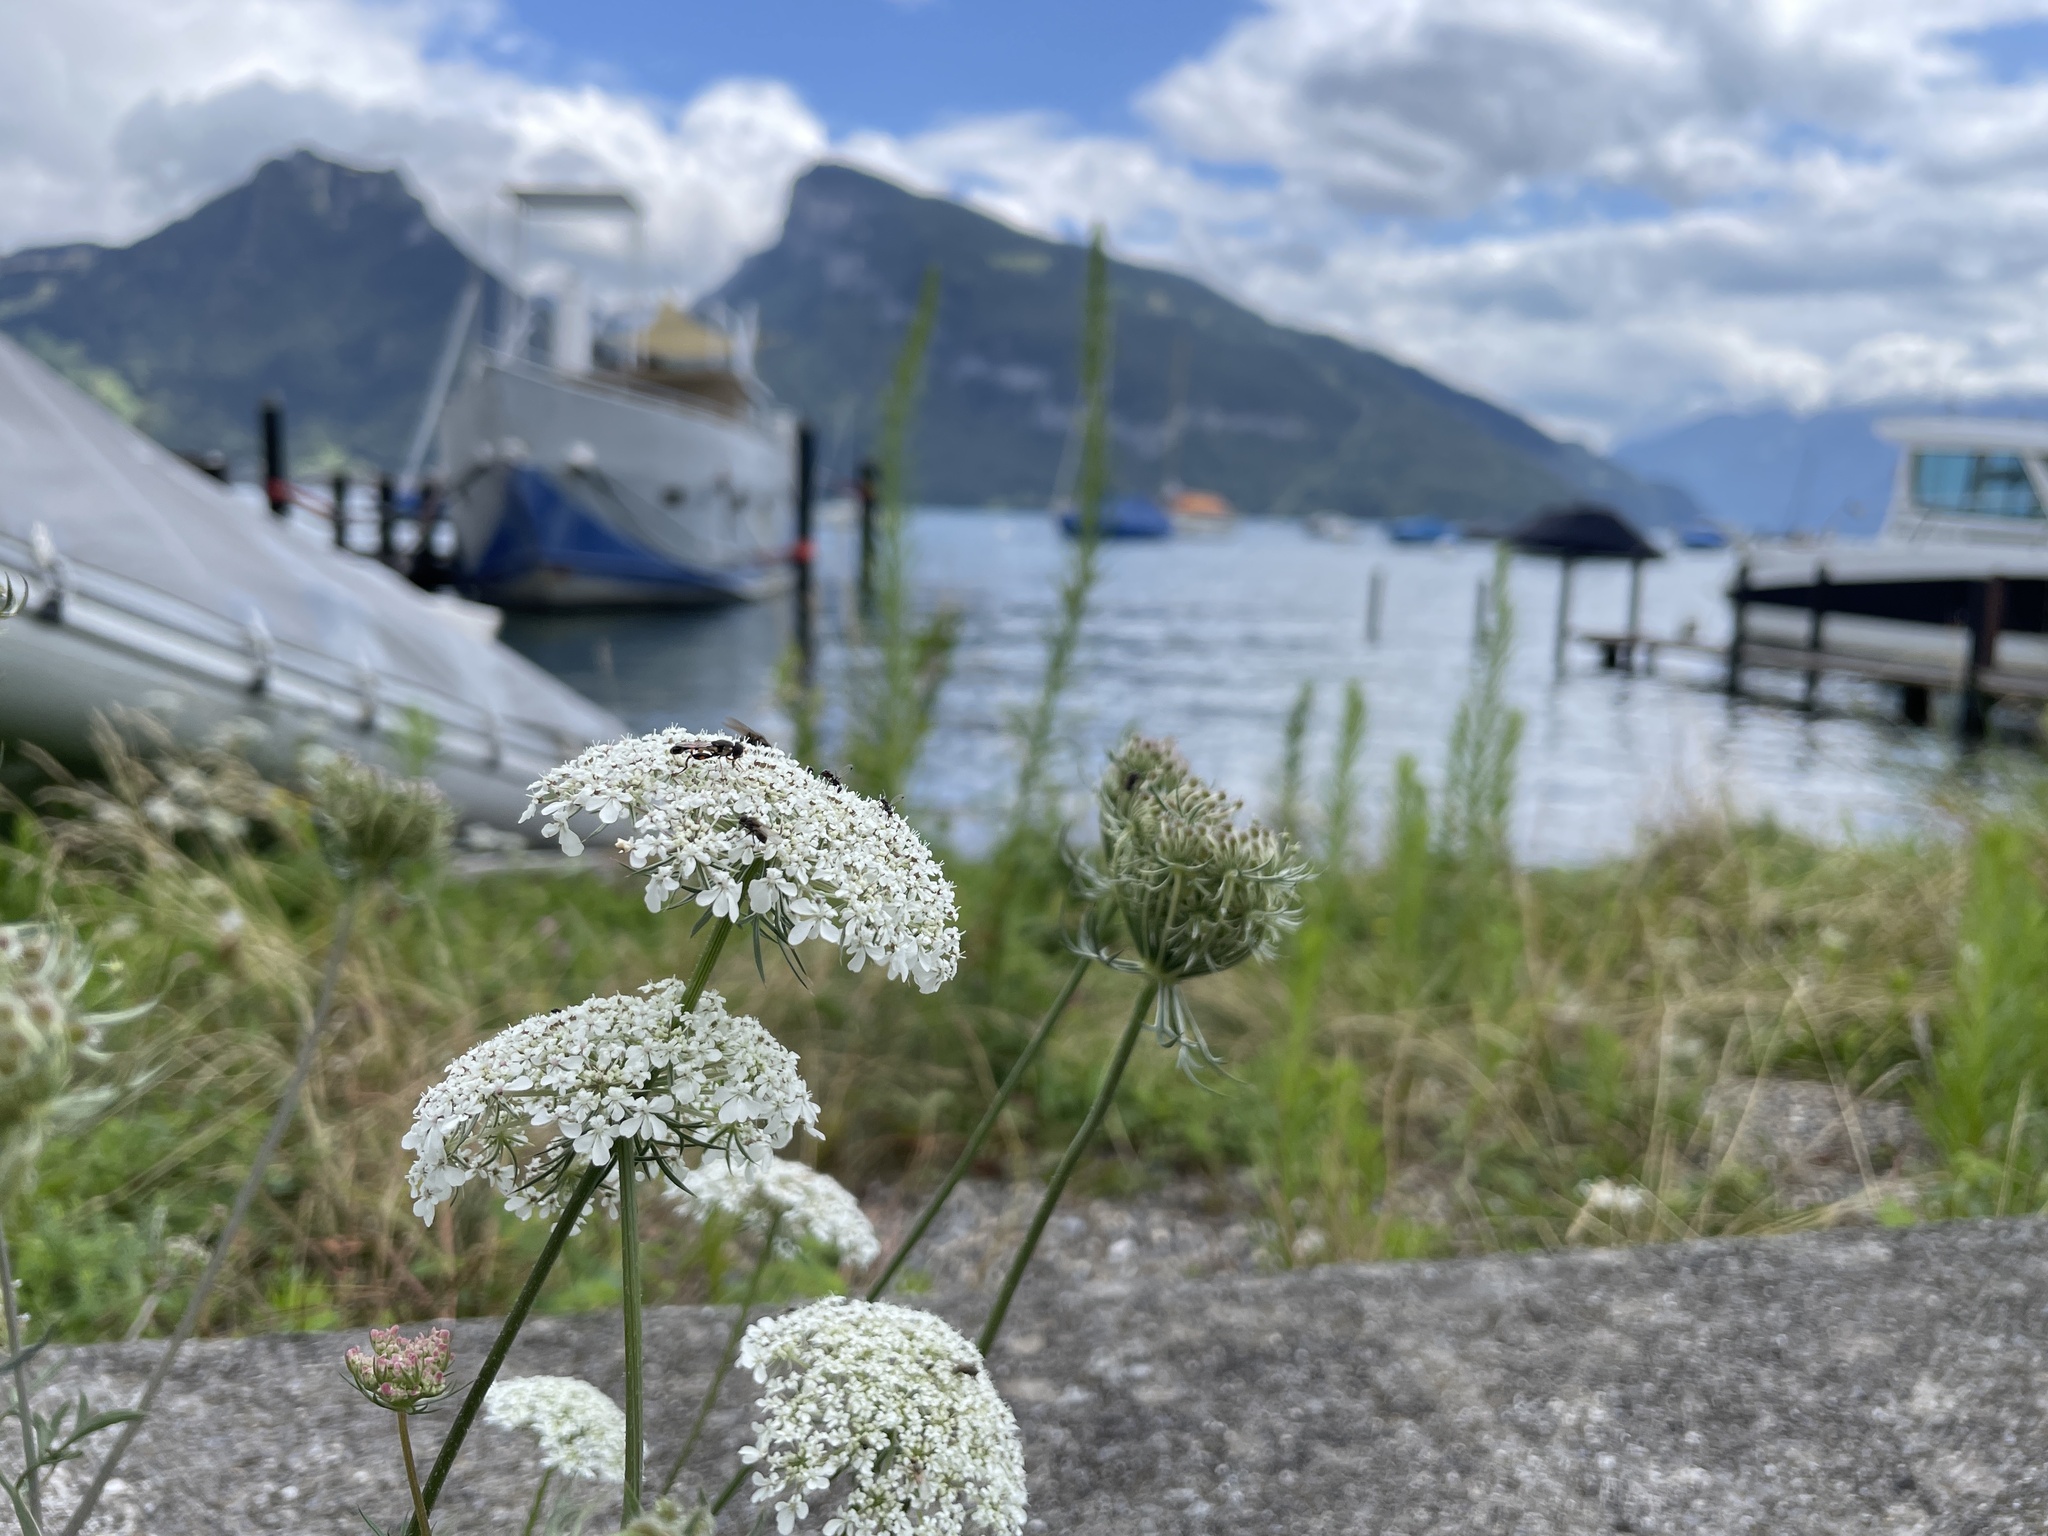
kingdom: Plantae
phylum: Tracheophyta
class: Magnoliopsida
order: Apiales
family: Apiaceae
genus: Daucus
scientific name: Daucus carota
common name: Wild carrot
